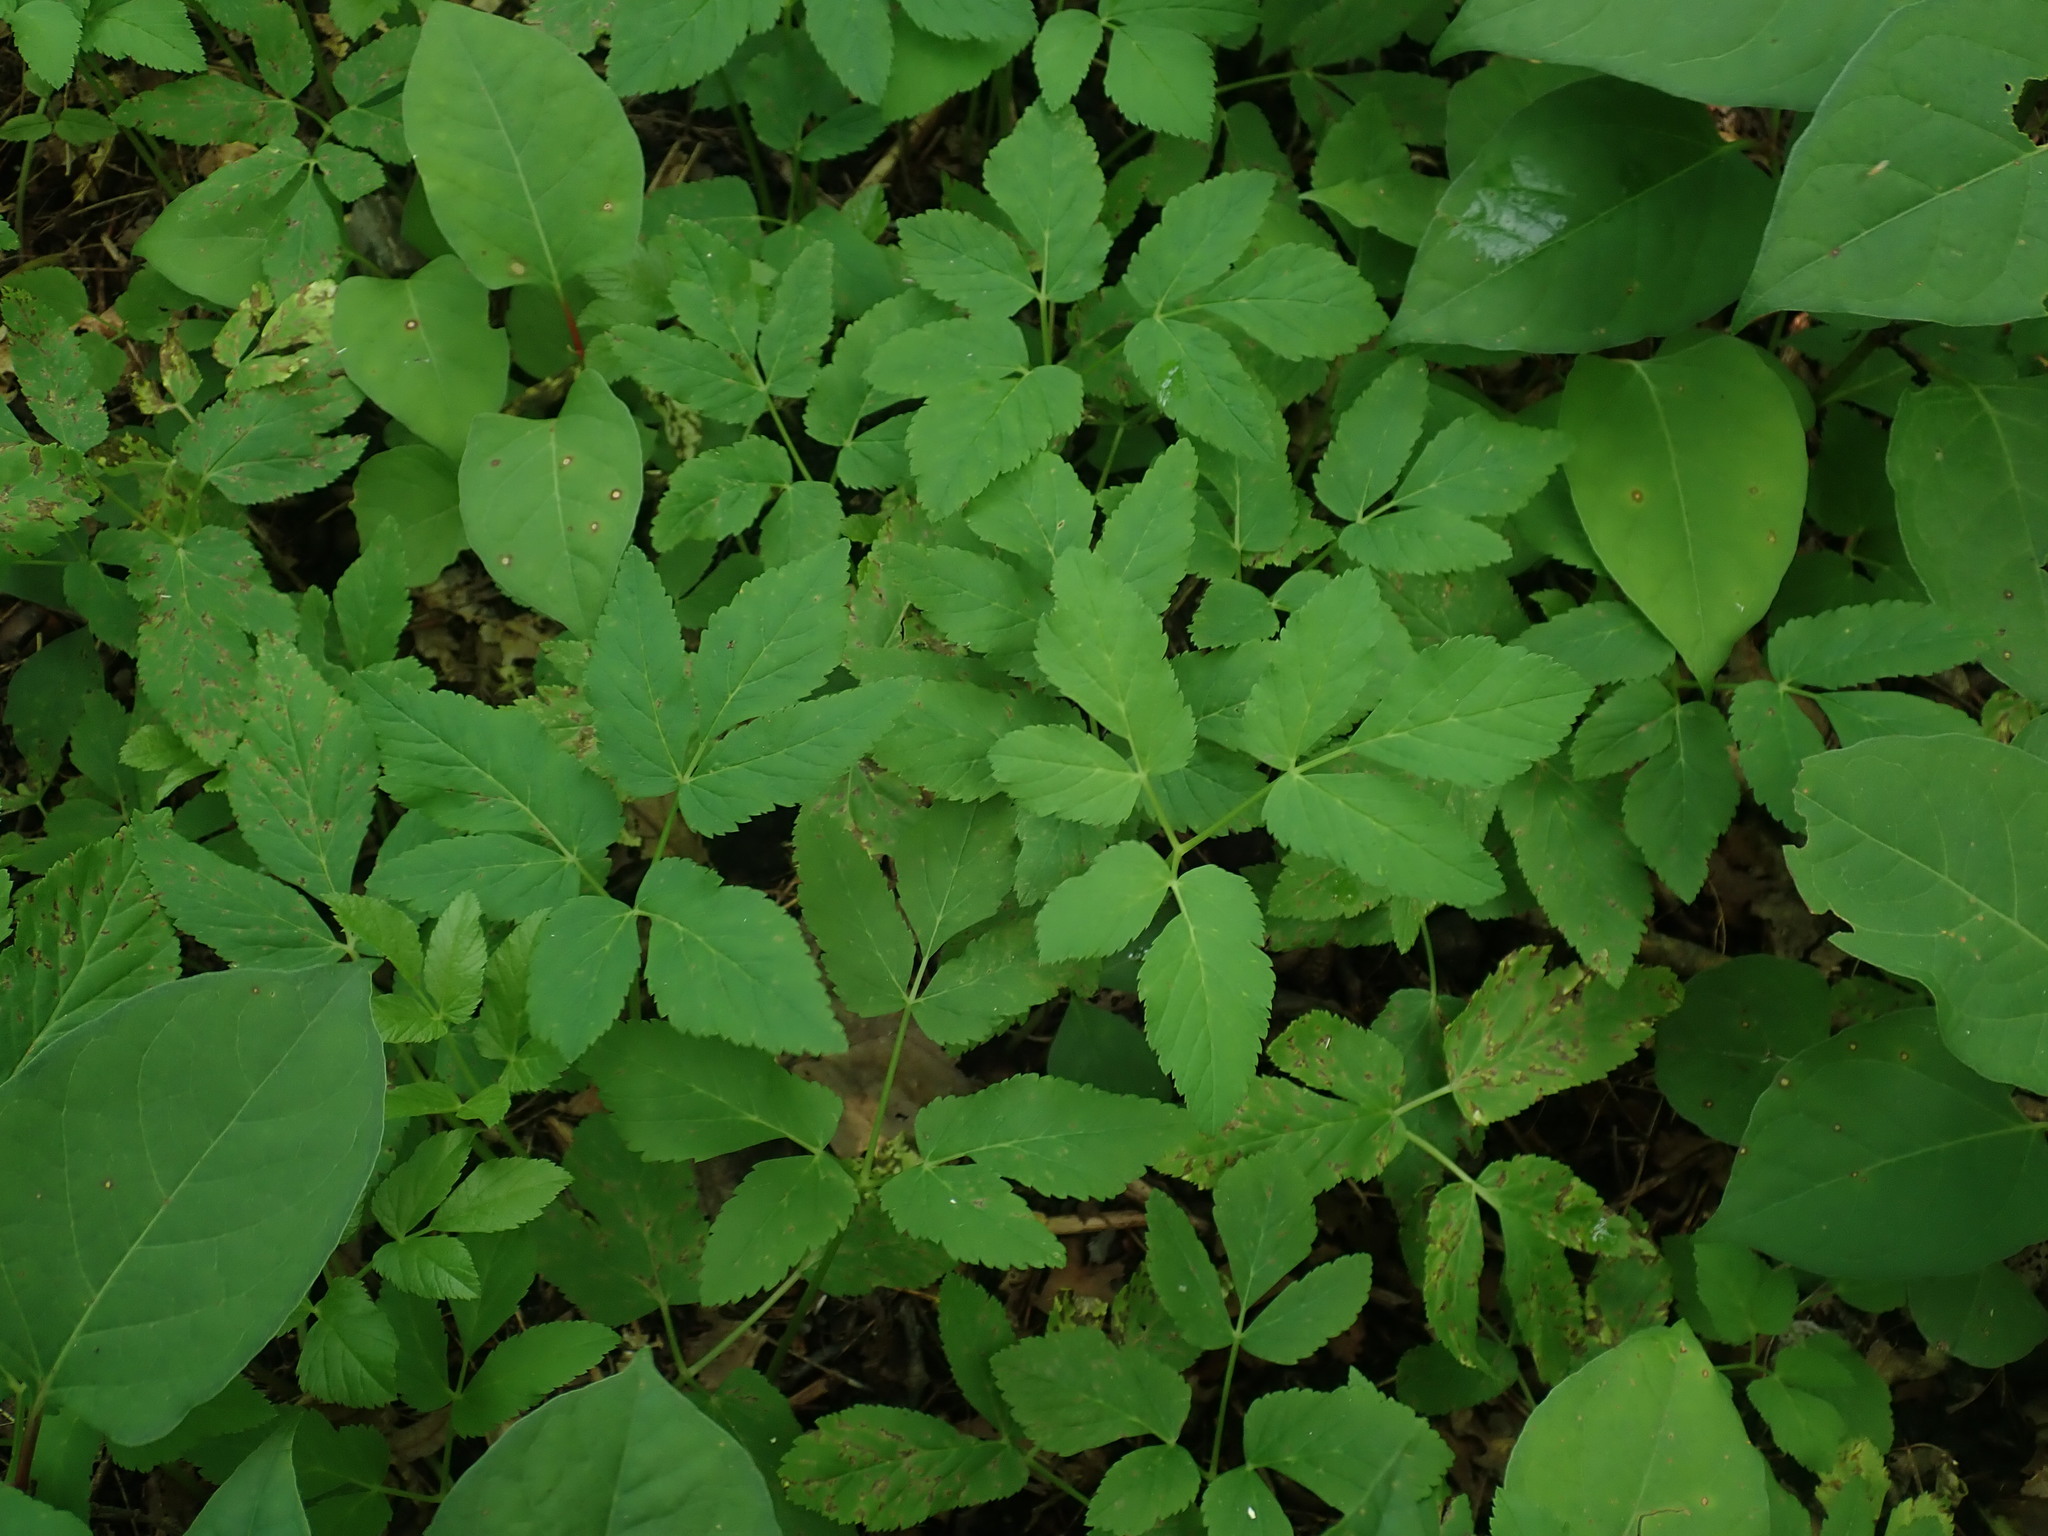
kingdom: Plantae
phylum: Tracheophyta
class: Magnoliopsida
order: Apiales
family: Apiaceae
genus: Aegopodium
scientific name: Aegopodium podagraria
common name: Ground-elder
